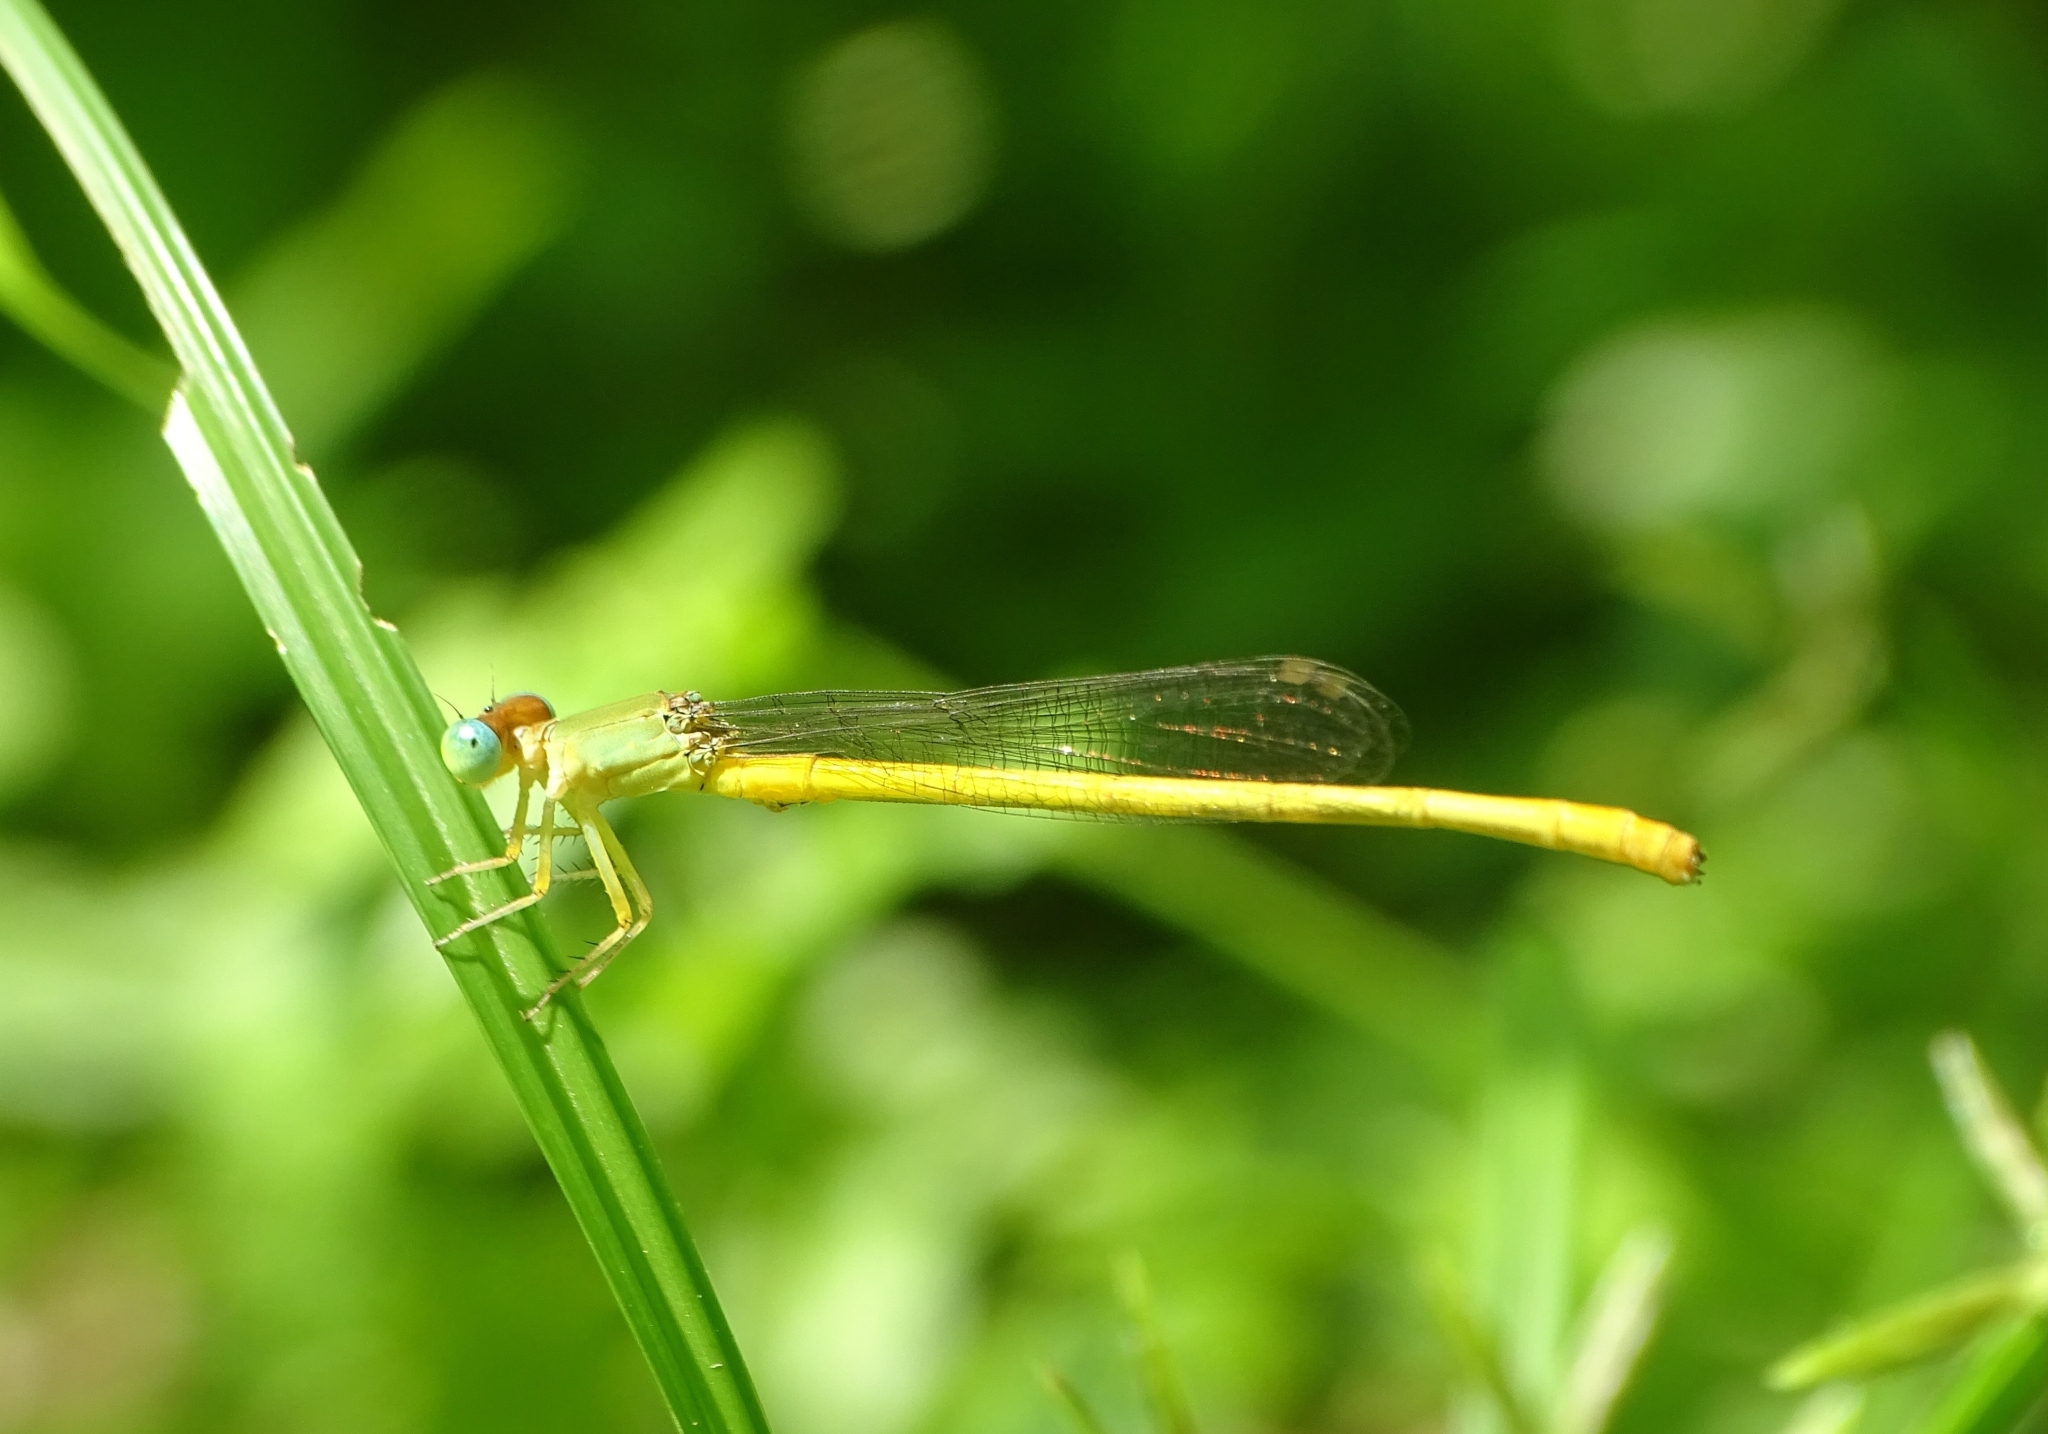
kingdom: Animalia
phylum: Arthropoda
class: Insecta
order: Odonata
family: Coenagrionidae
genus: Ceriagrion
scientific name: Ceriagrion coromandelianum
